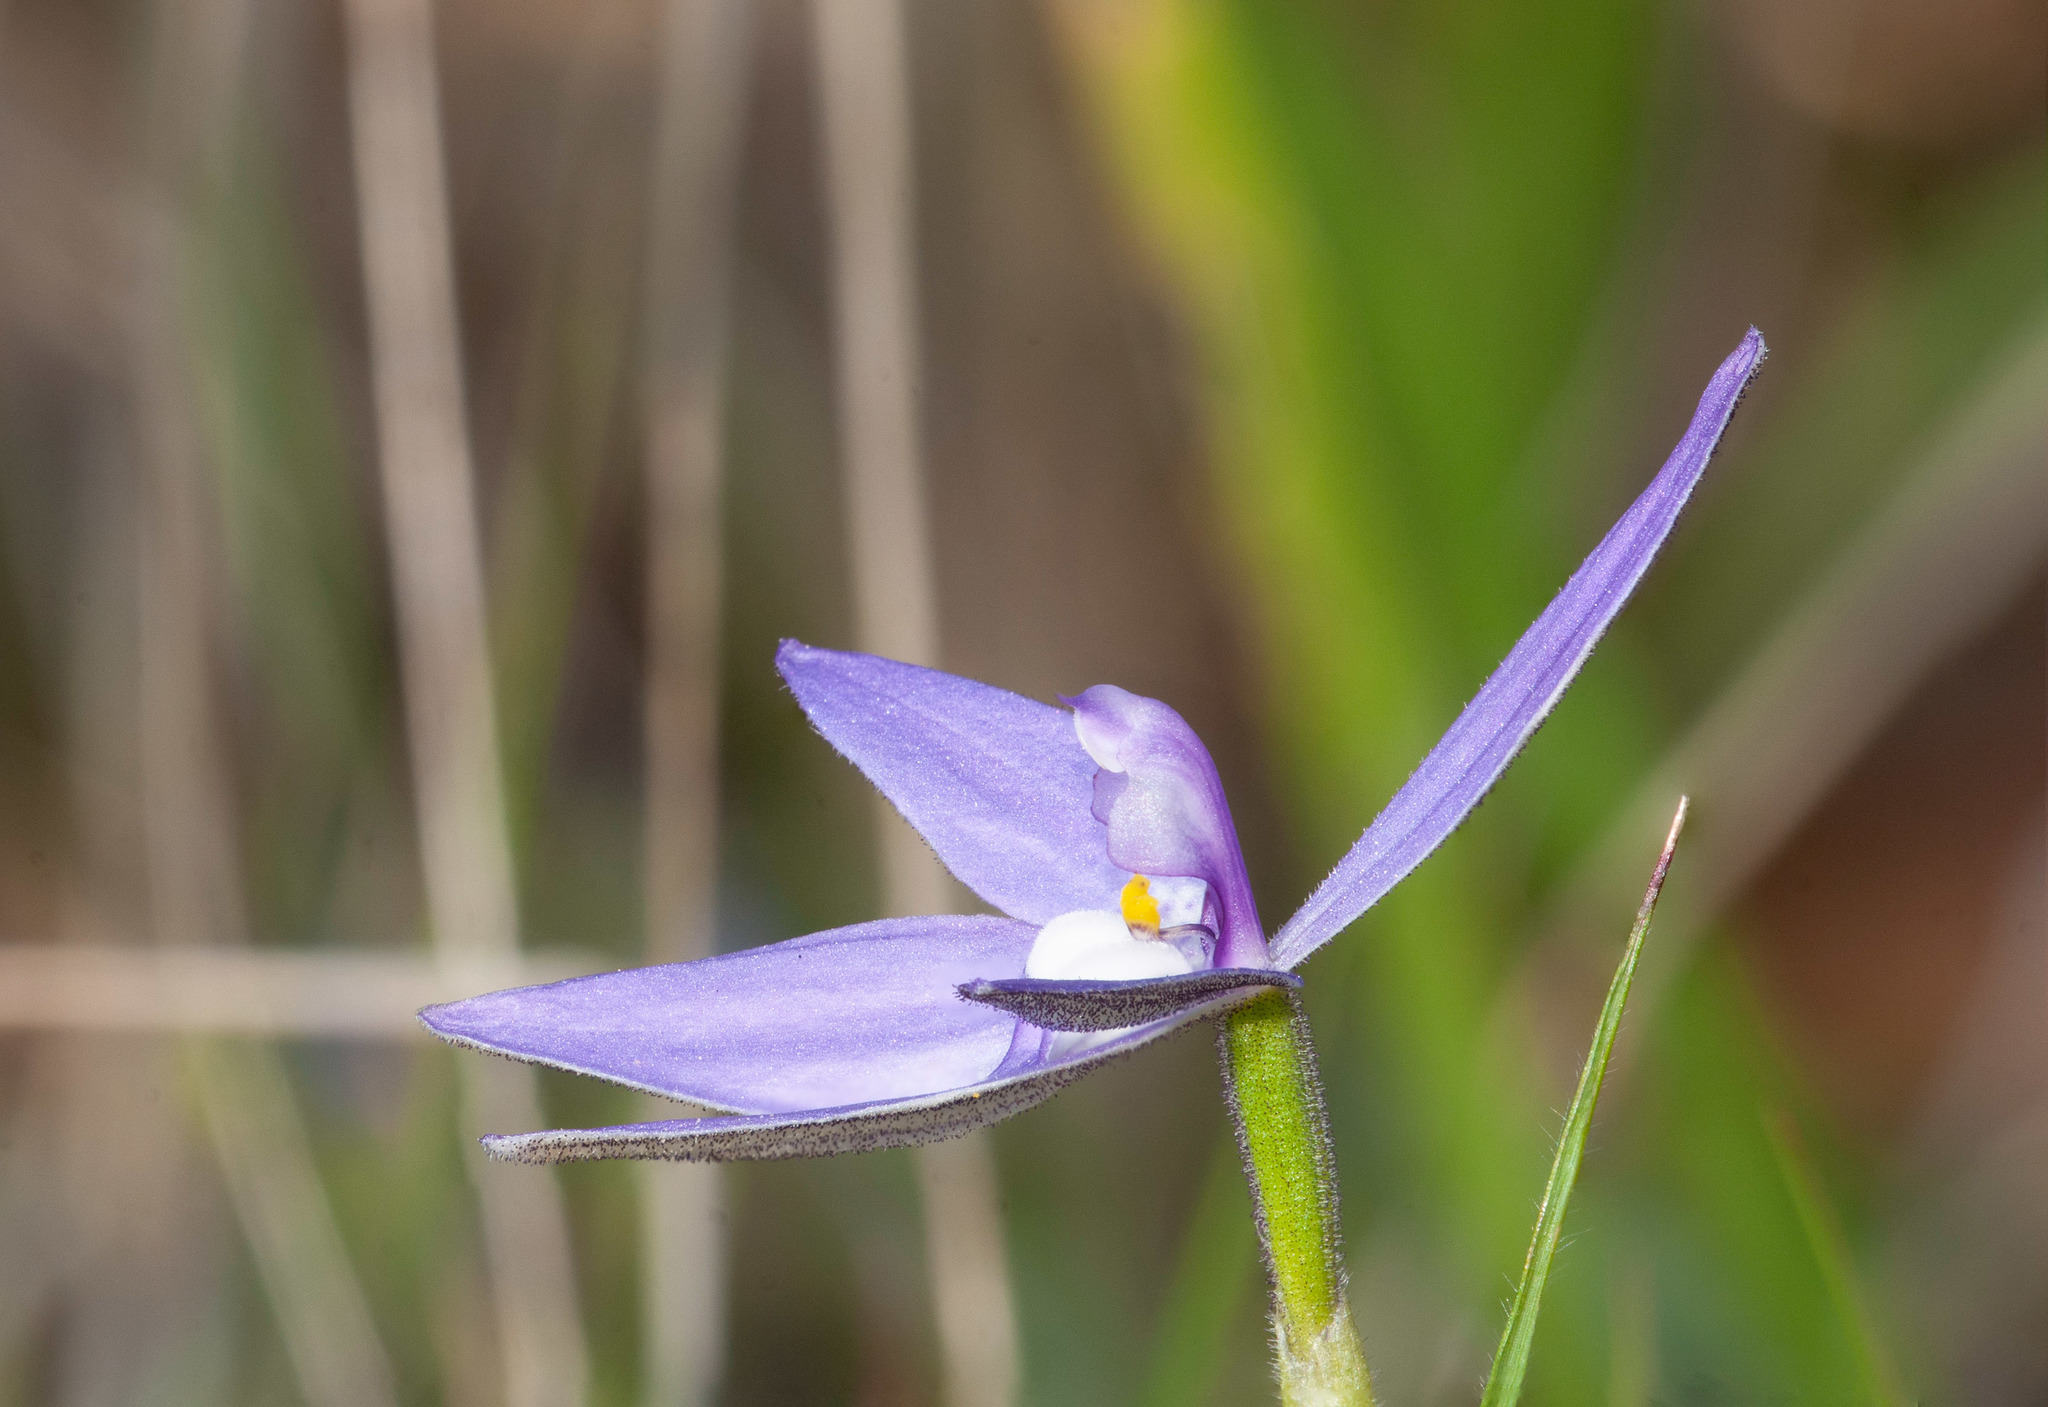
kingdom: Plantae
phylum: Tracheophyta
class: Liliopsida
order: Asparagales
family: Orchidaceae
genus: Caladenia
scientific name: Caladenia major
